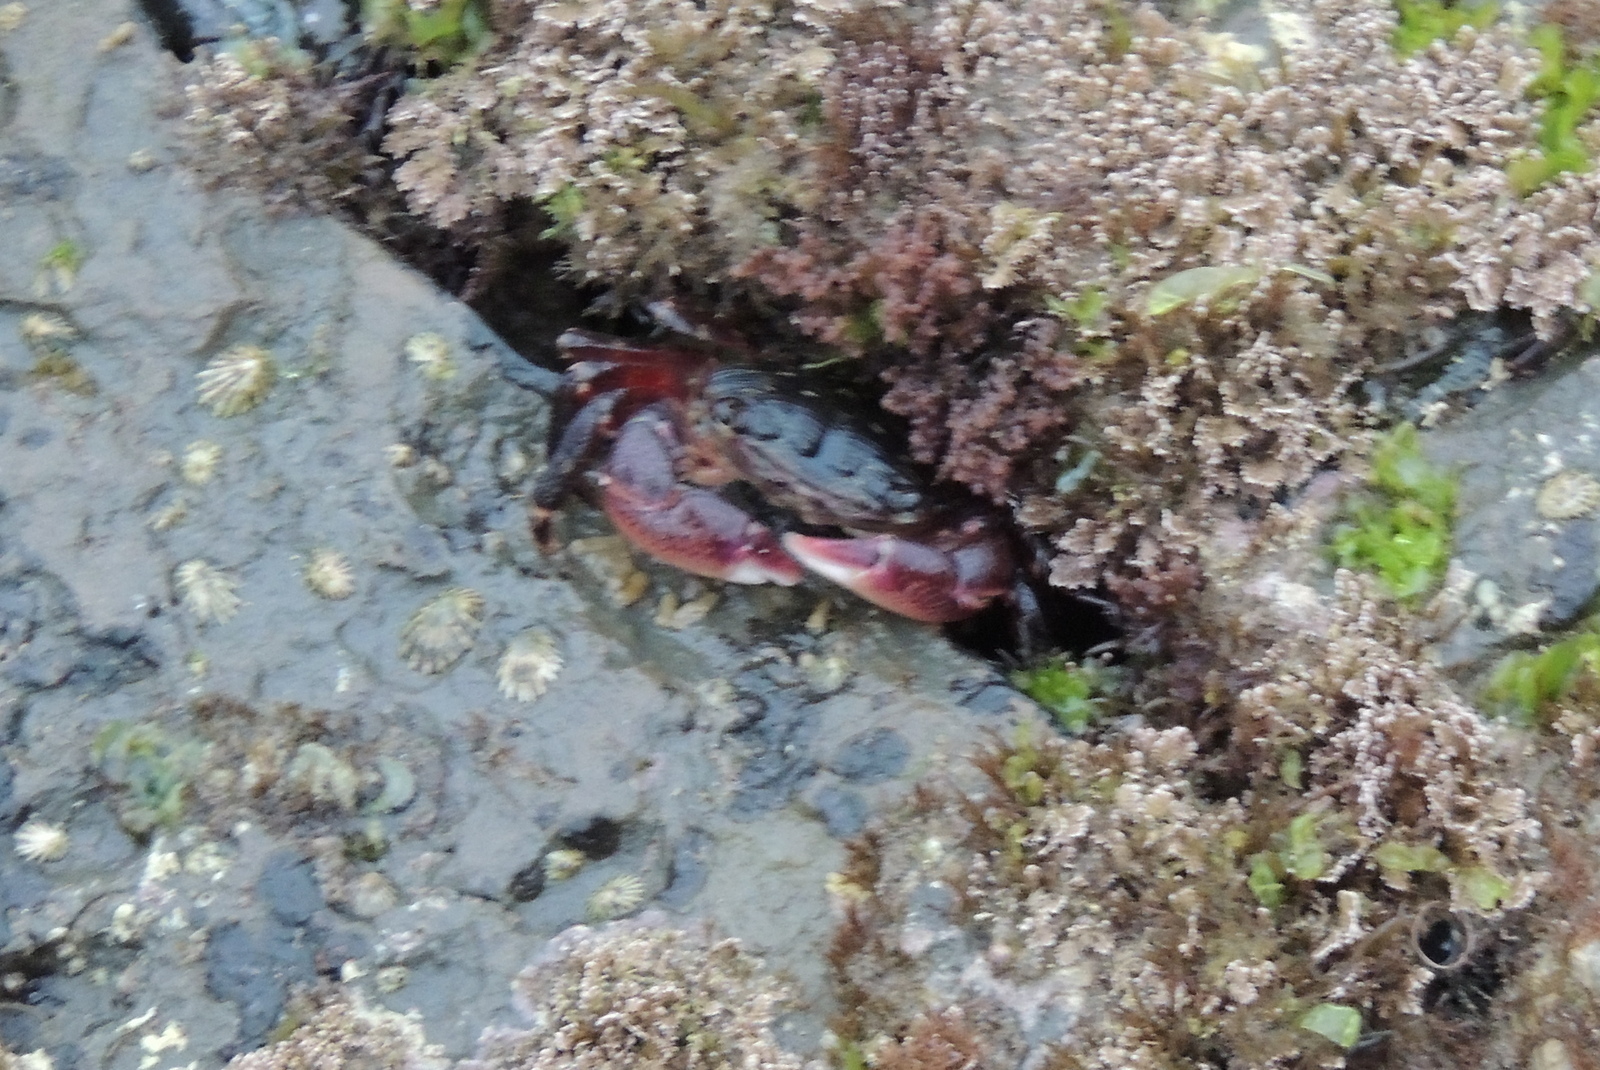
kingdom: Animalia
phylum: Arthropoda
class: Malacostraca
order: Decapoda
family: Grapsidae
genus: Pachygrapsus
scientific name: Pachygrapsus crassipes
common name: Striped shore crab
